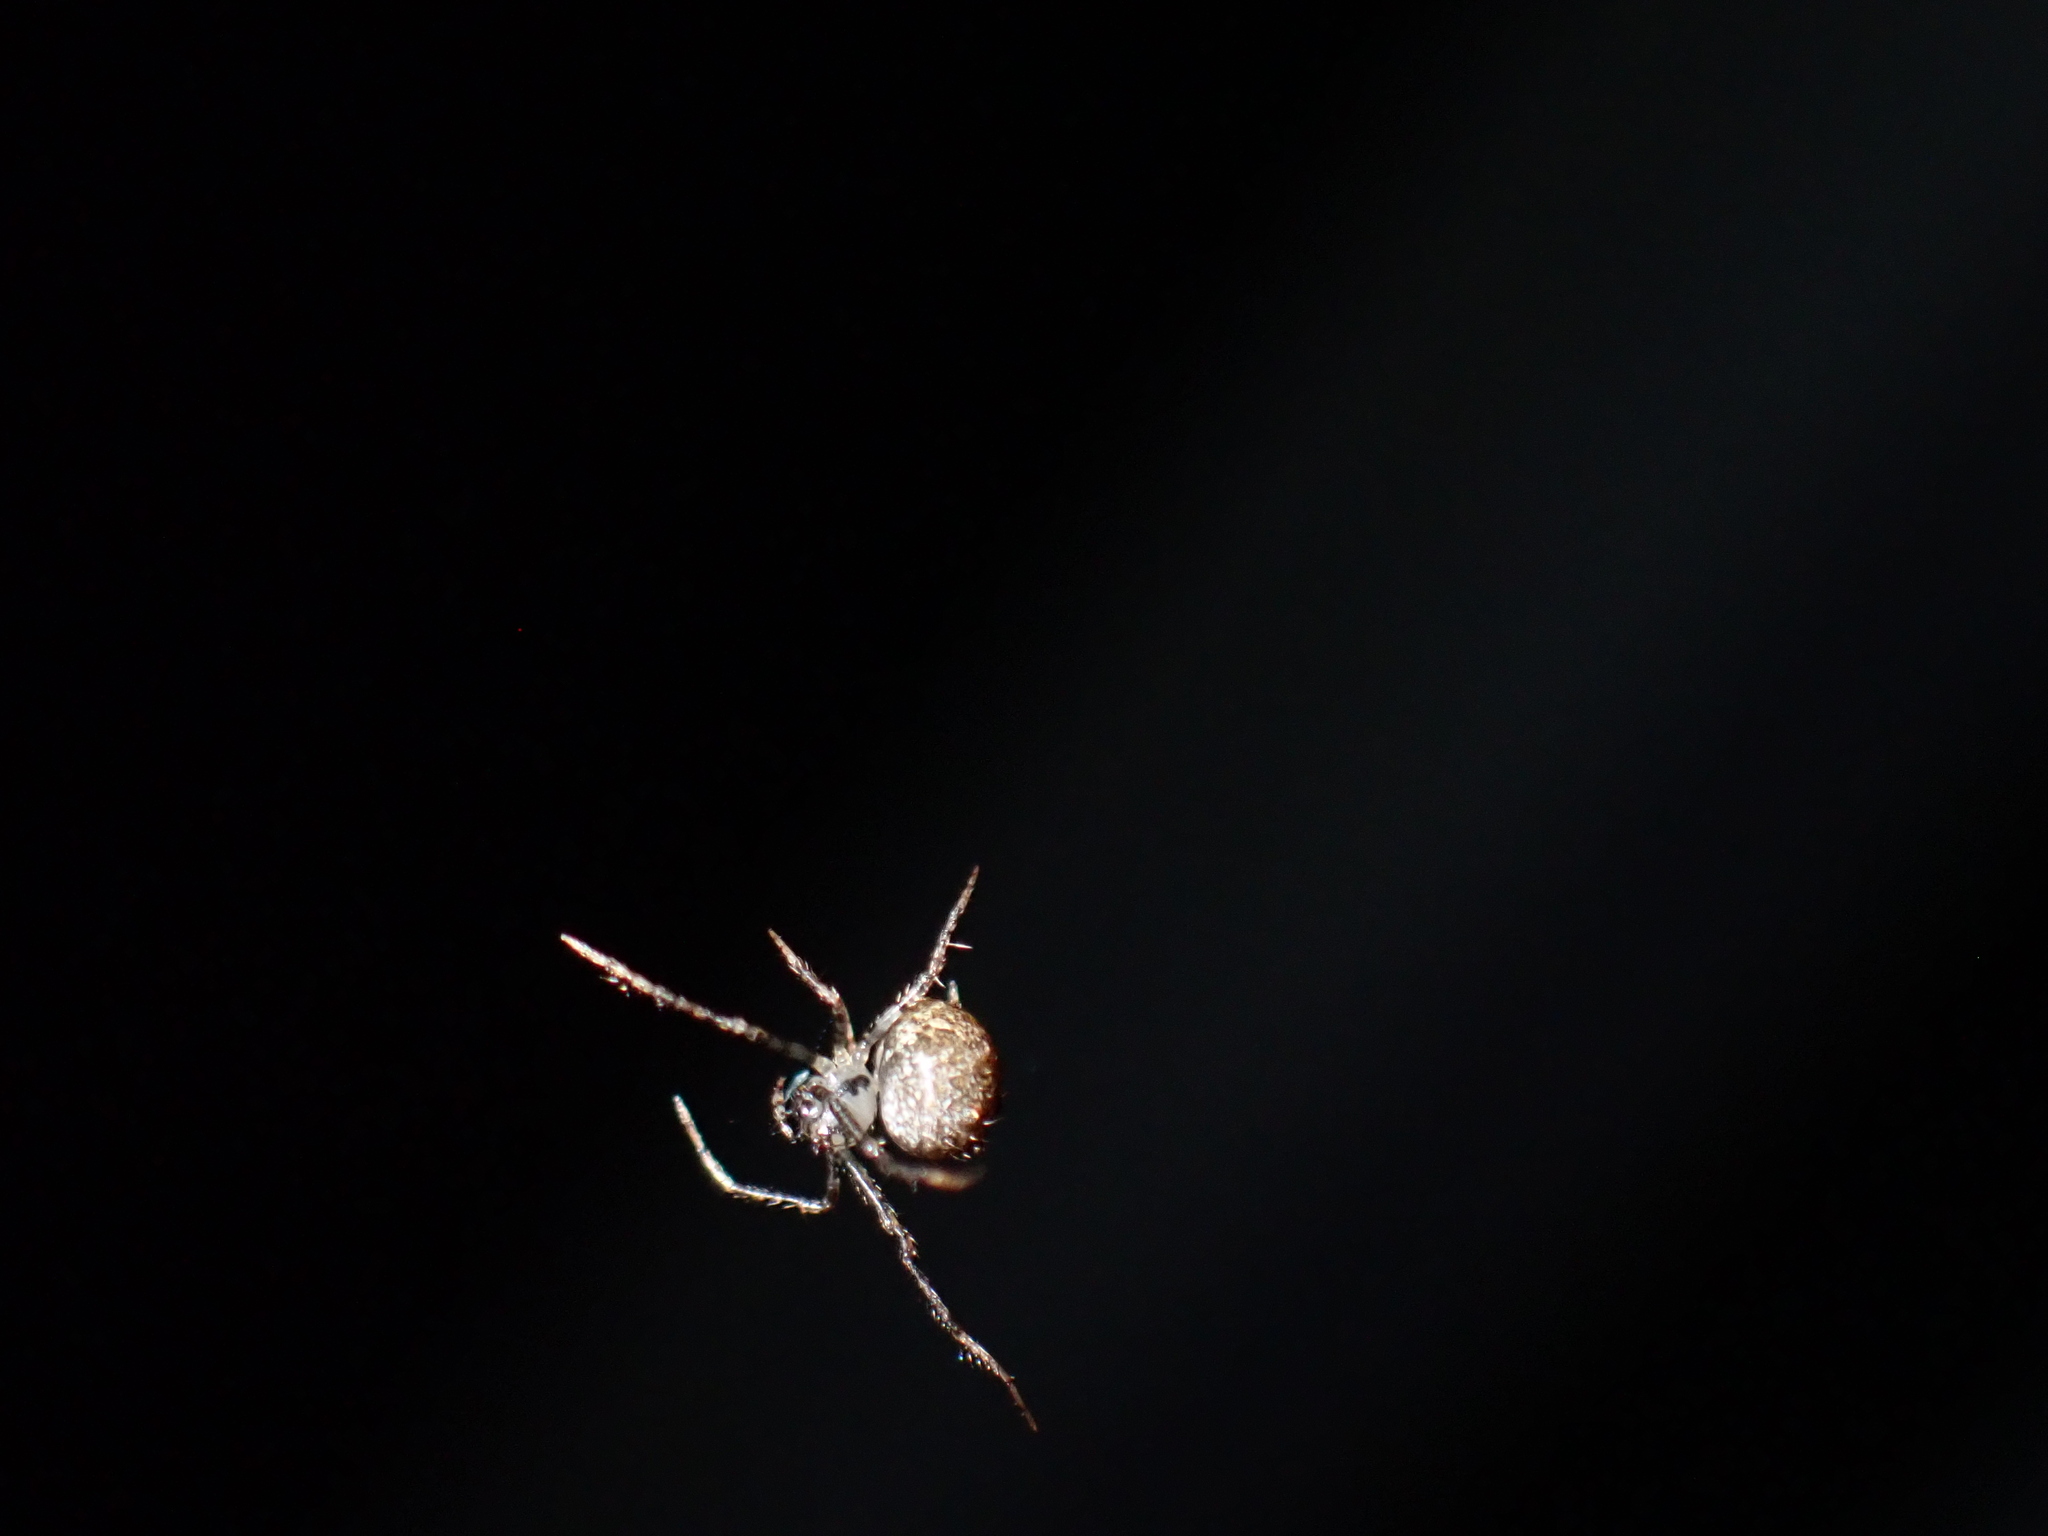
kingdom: Animalia
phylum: Arthropoda
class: Arachnida
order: Araneae
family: Mimetidae
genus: Ero
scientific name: Ero aphana
